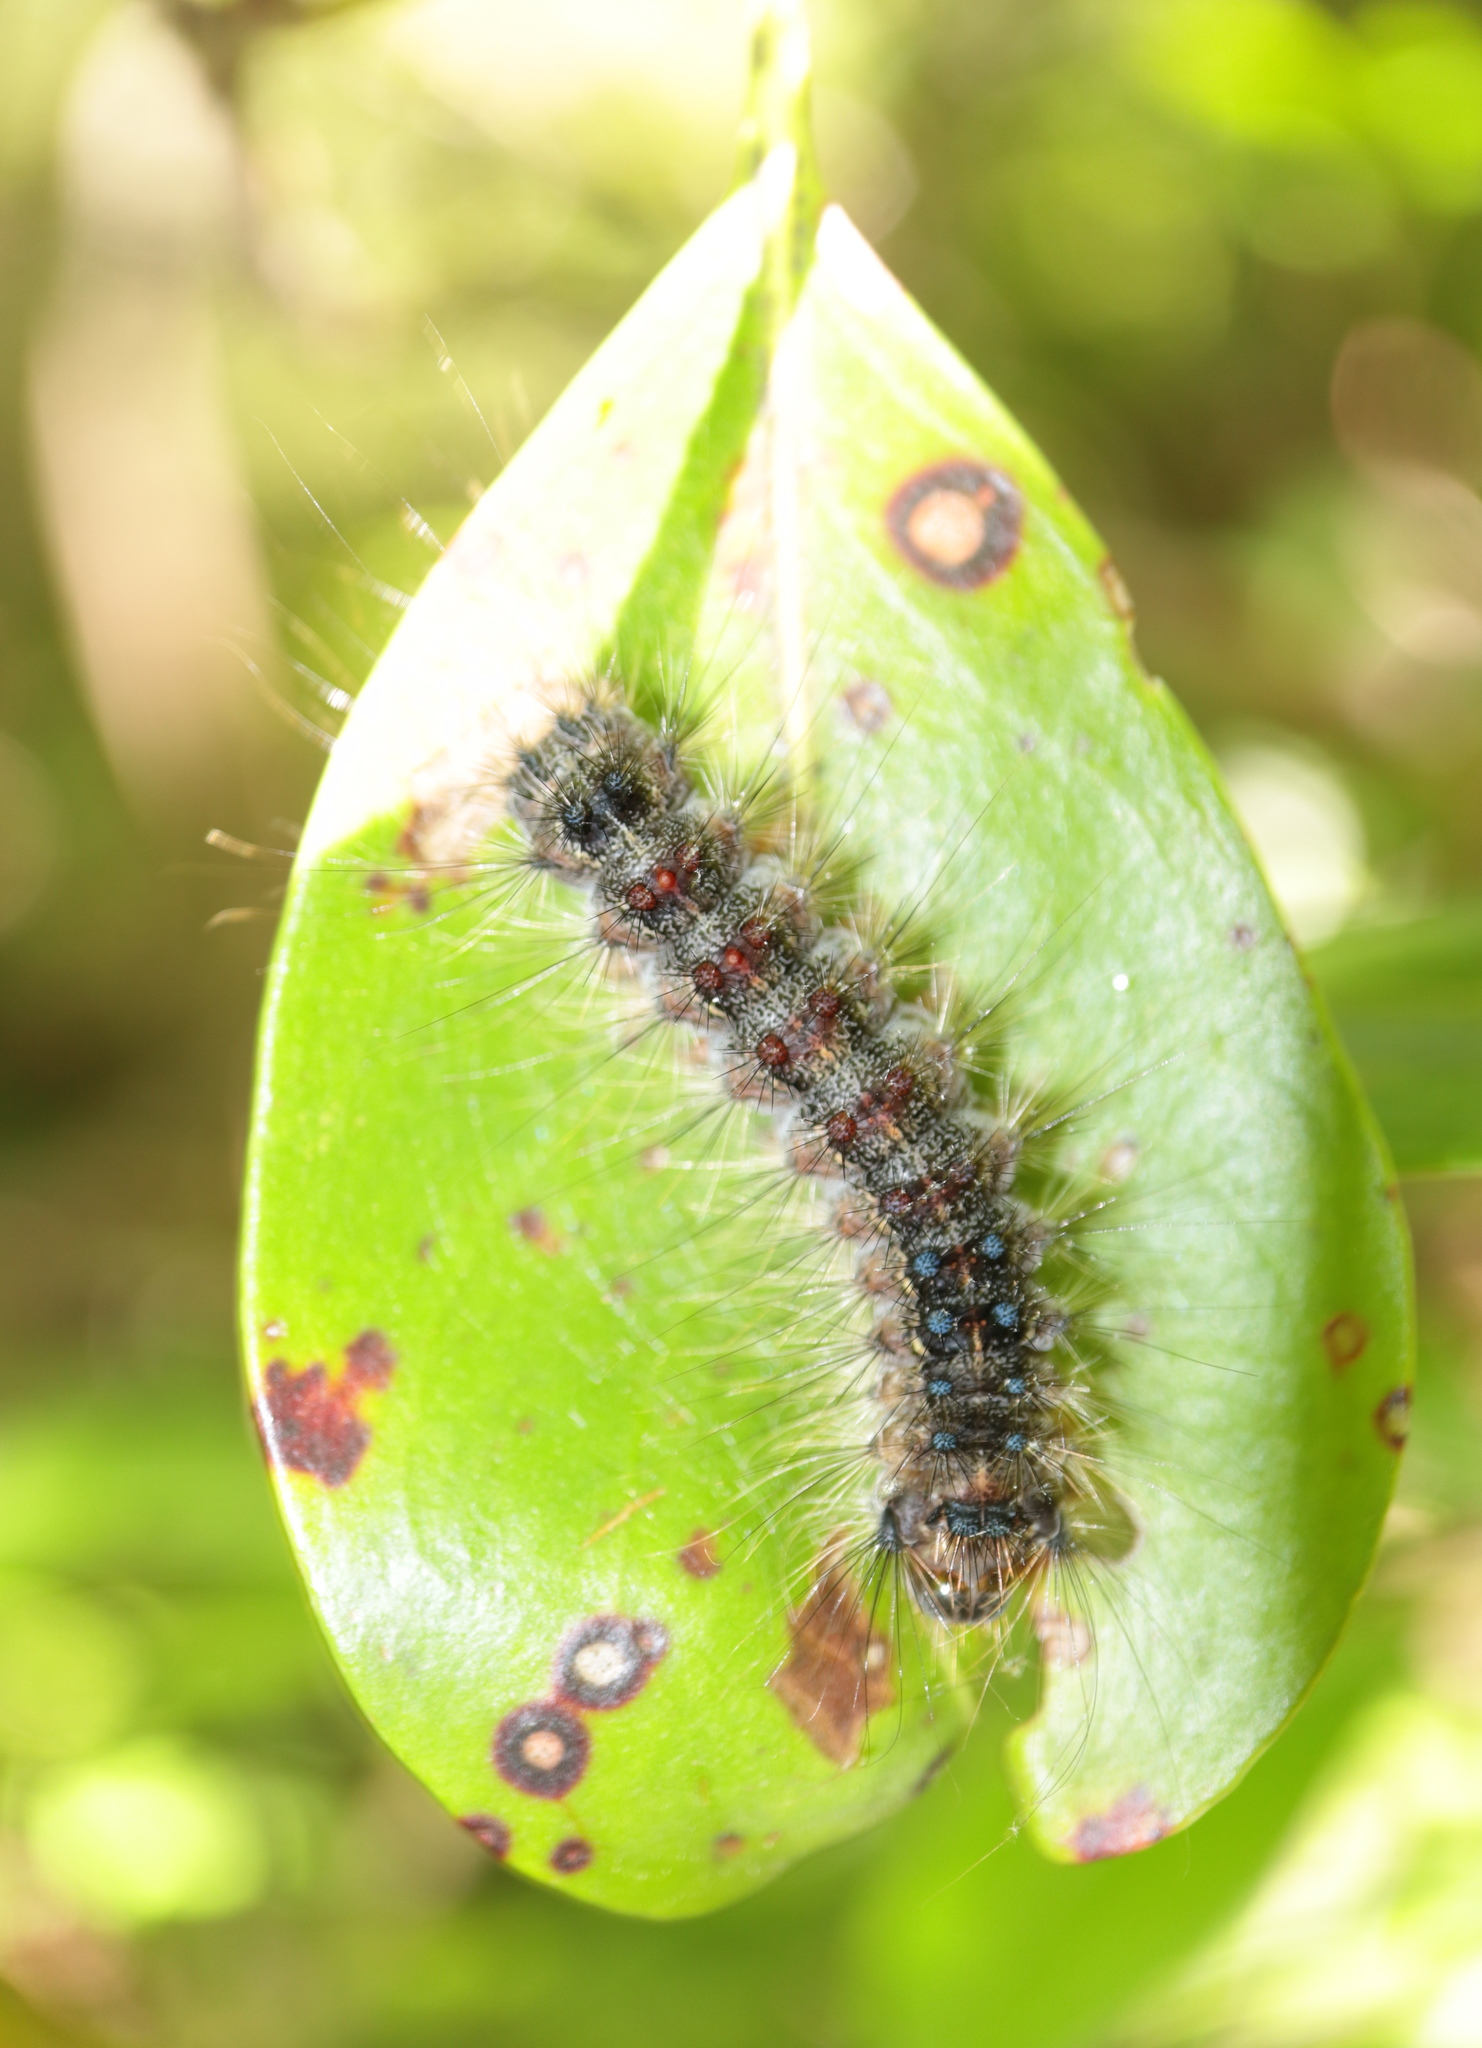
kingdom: Animalia
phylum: Arthropoda
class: Insecta
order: Lepidoptera
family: Erebidae
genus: Lymantria
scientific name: Lymantria dispar
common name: Gypsy moth
